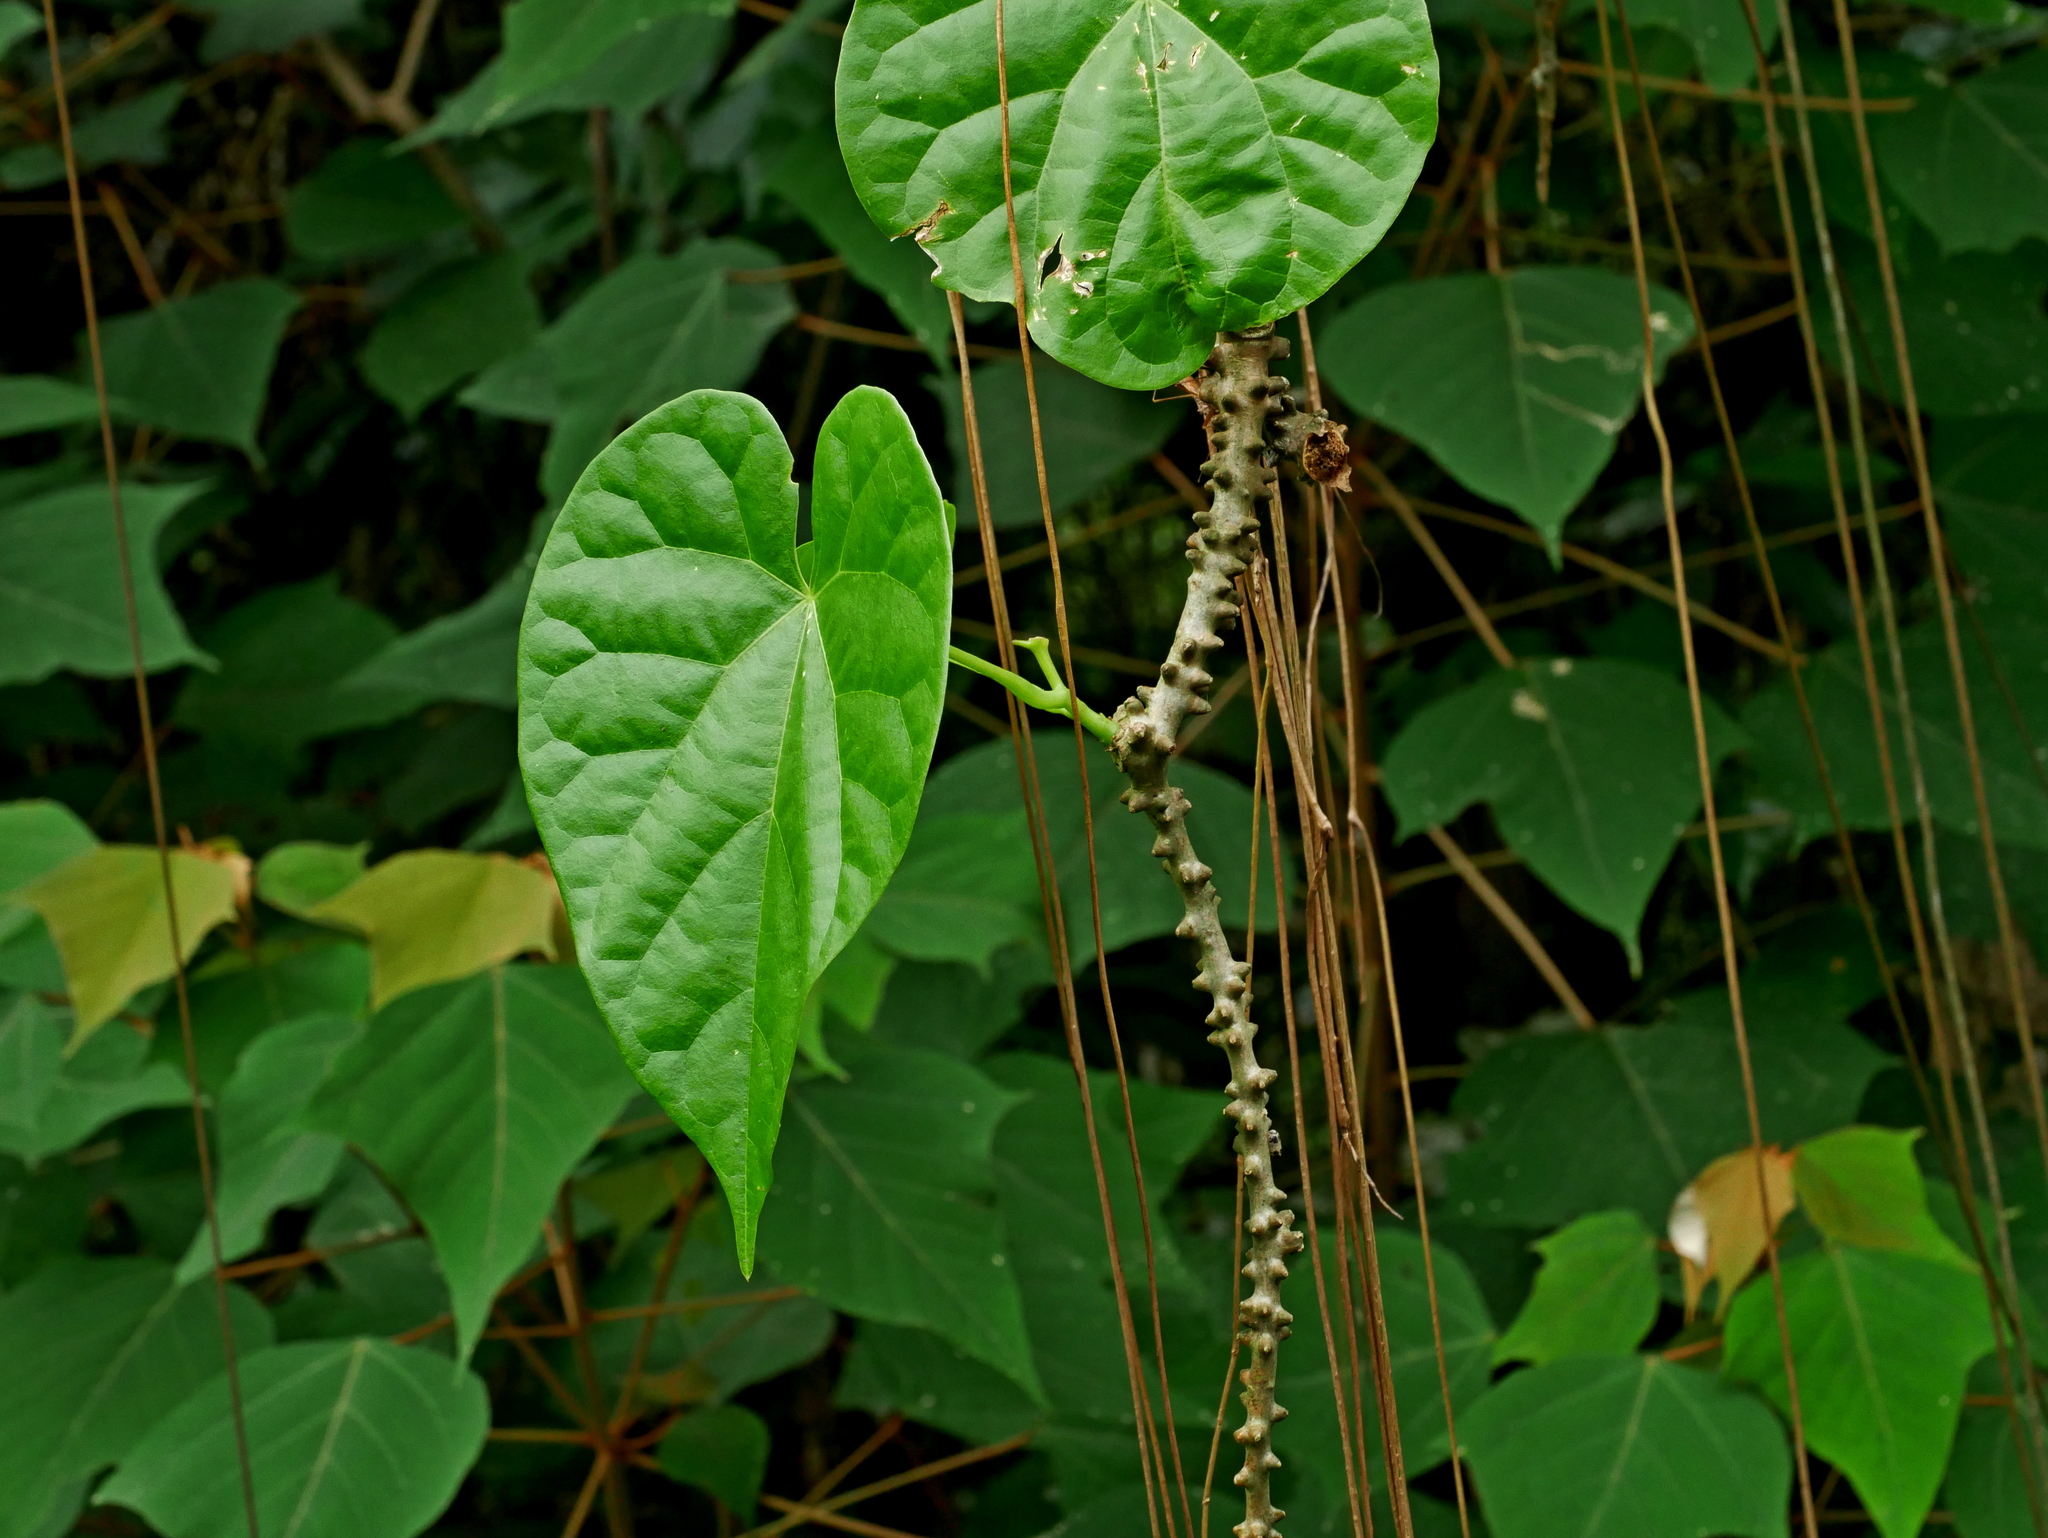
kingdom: Plantae
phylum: Tracheophyta
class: Magnoliopsida
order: Ranunculales
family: Menispermaceae
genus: Tinospora
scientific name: Tinospora crispa
